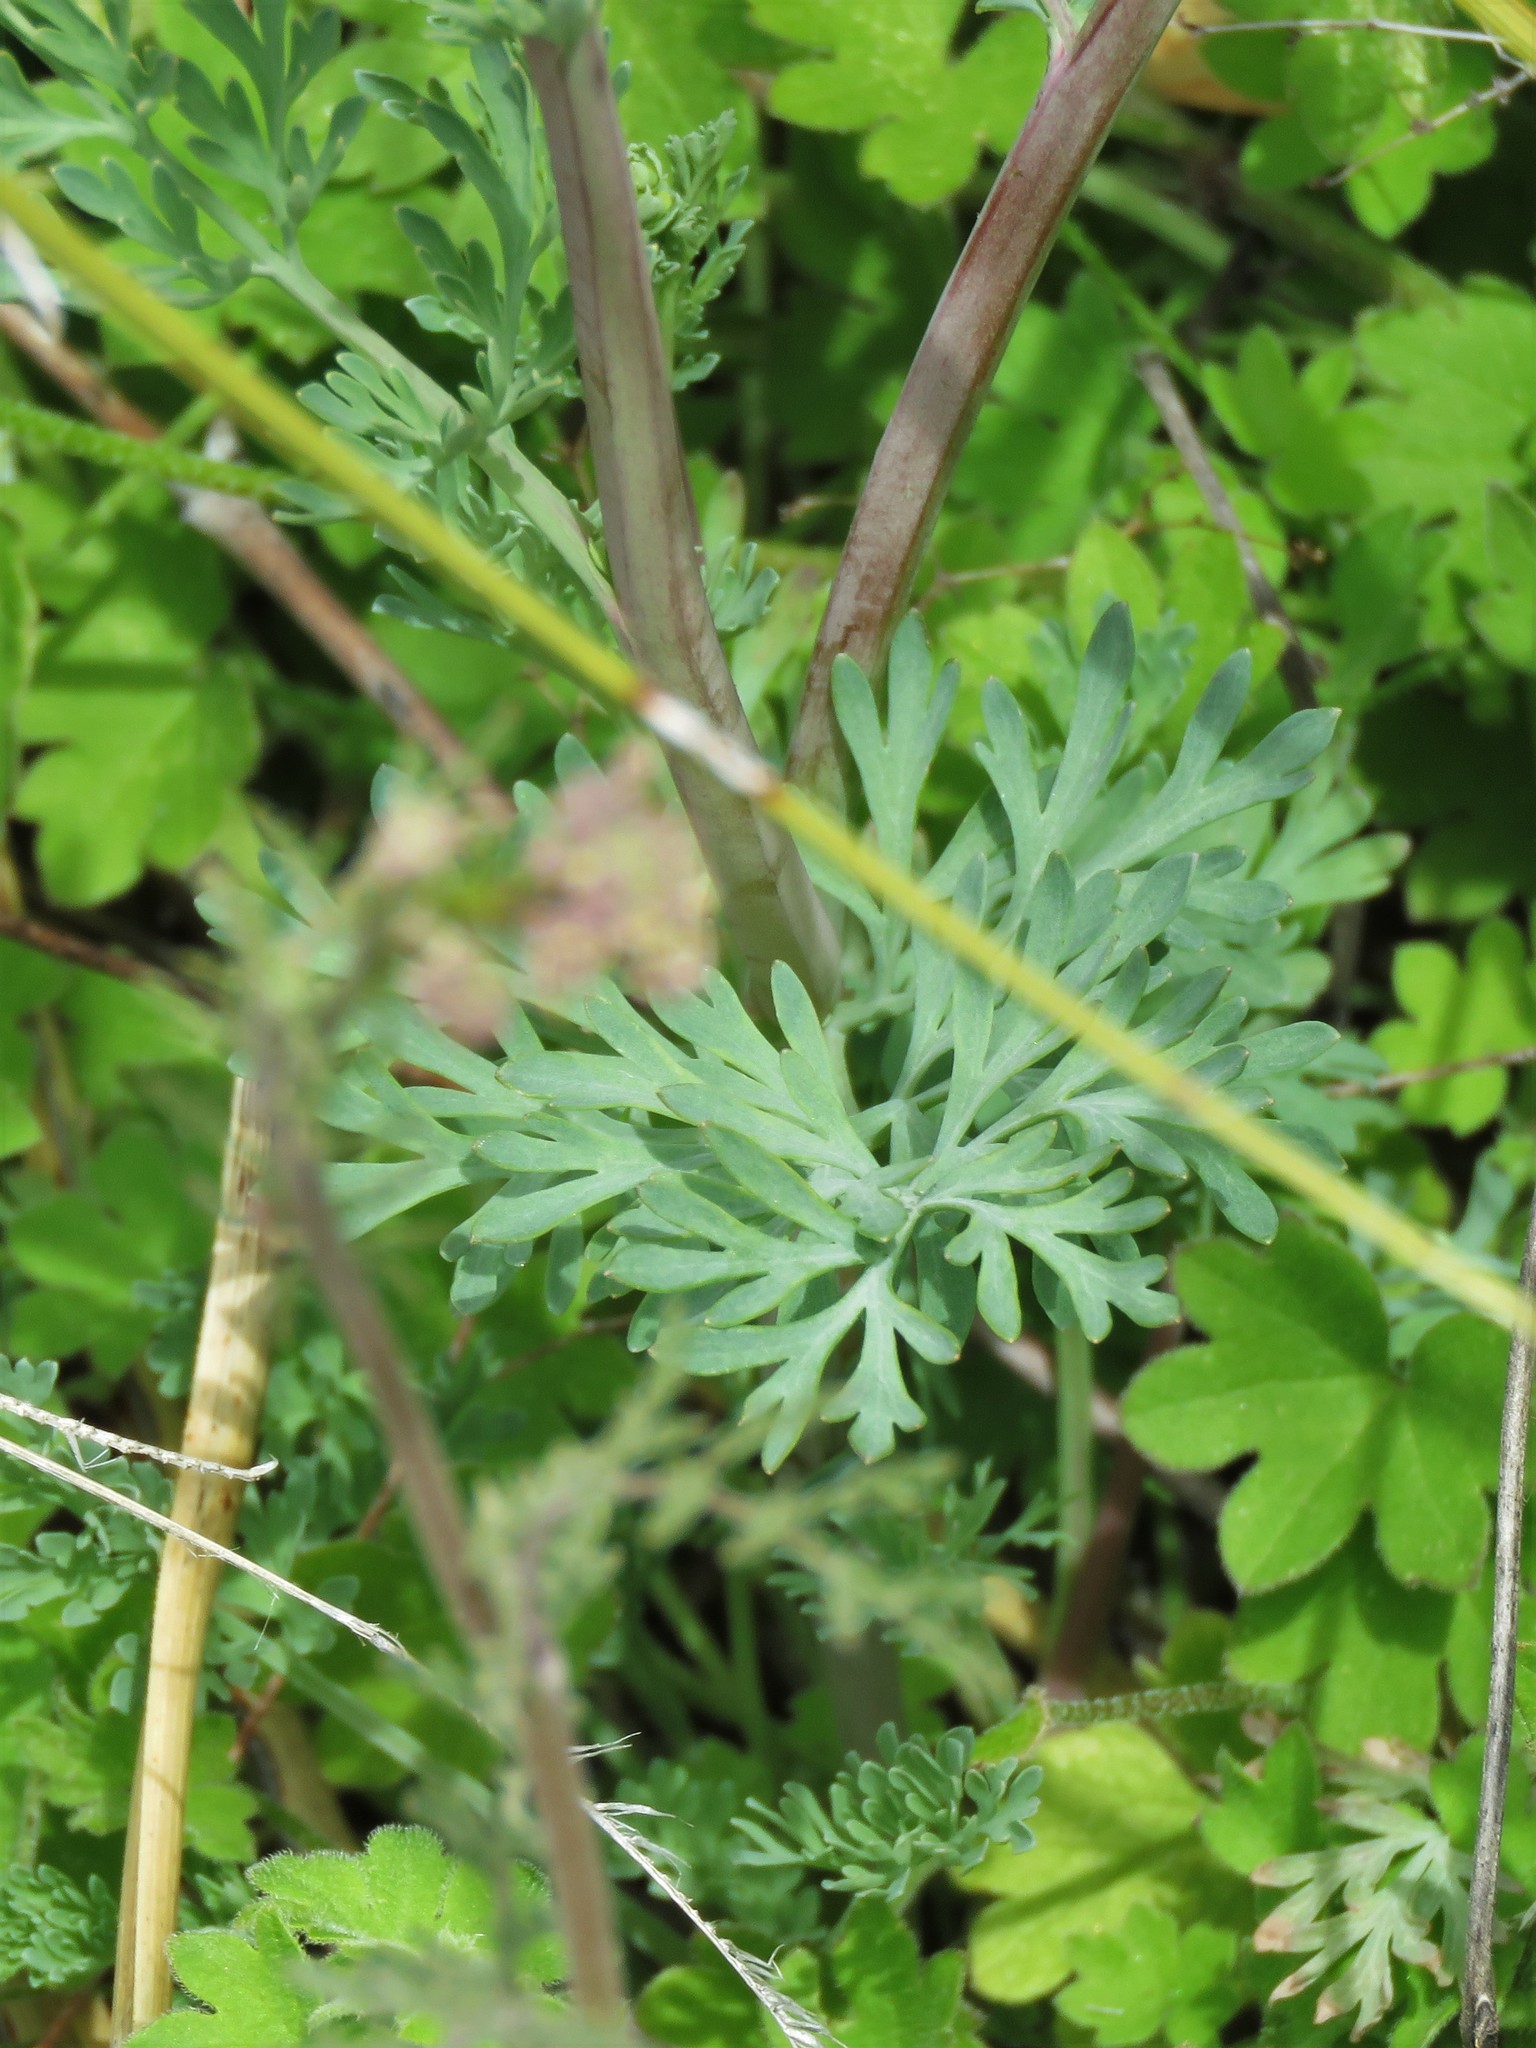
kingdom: Plantae
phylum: Tracheophyta
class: Magnoliopsida
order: Ranunculales
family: Papaveraceae
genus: Corydalis
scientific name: Corydalis aurea
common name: Golden corydalis
